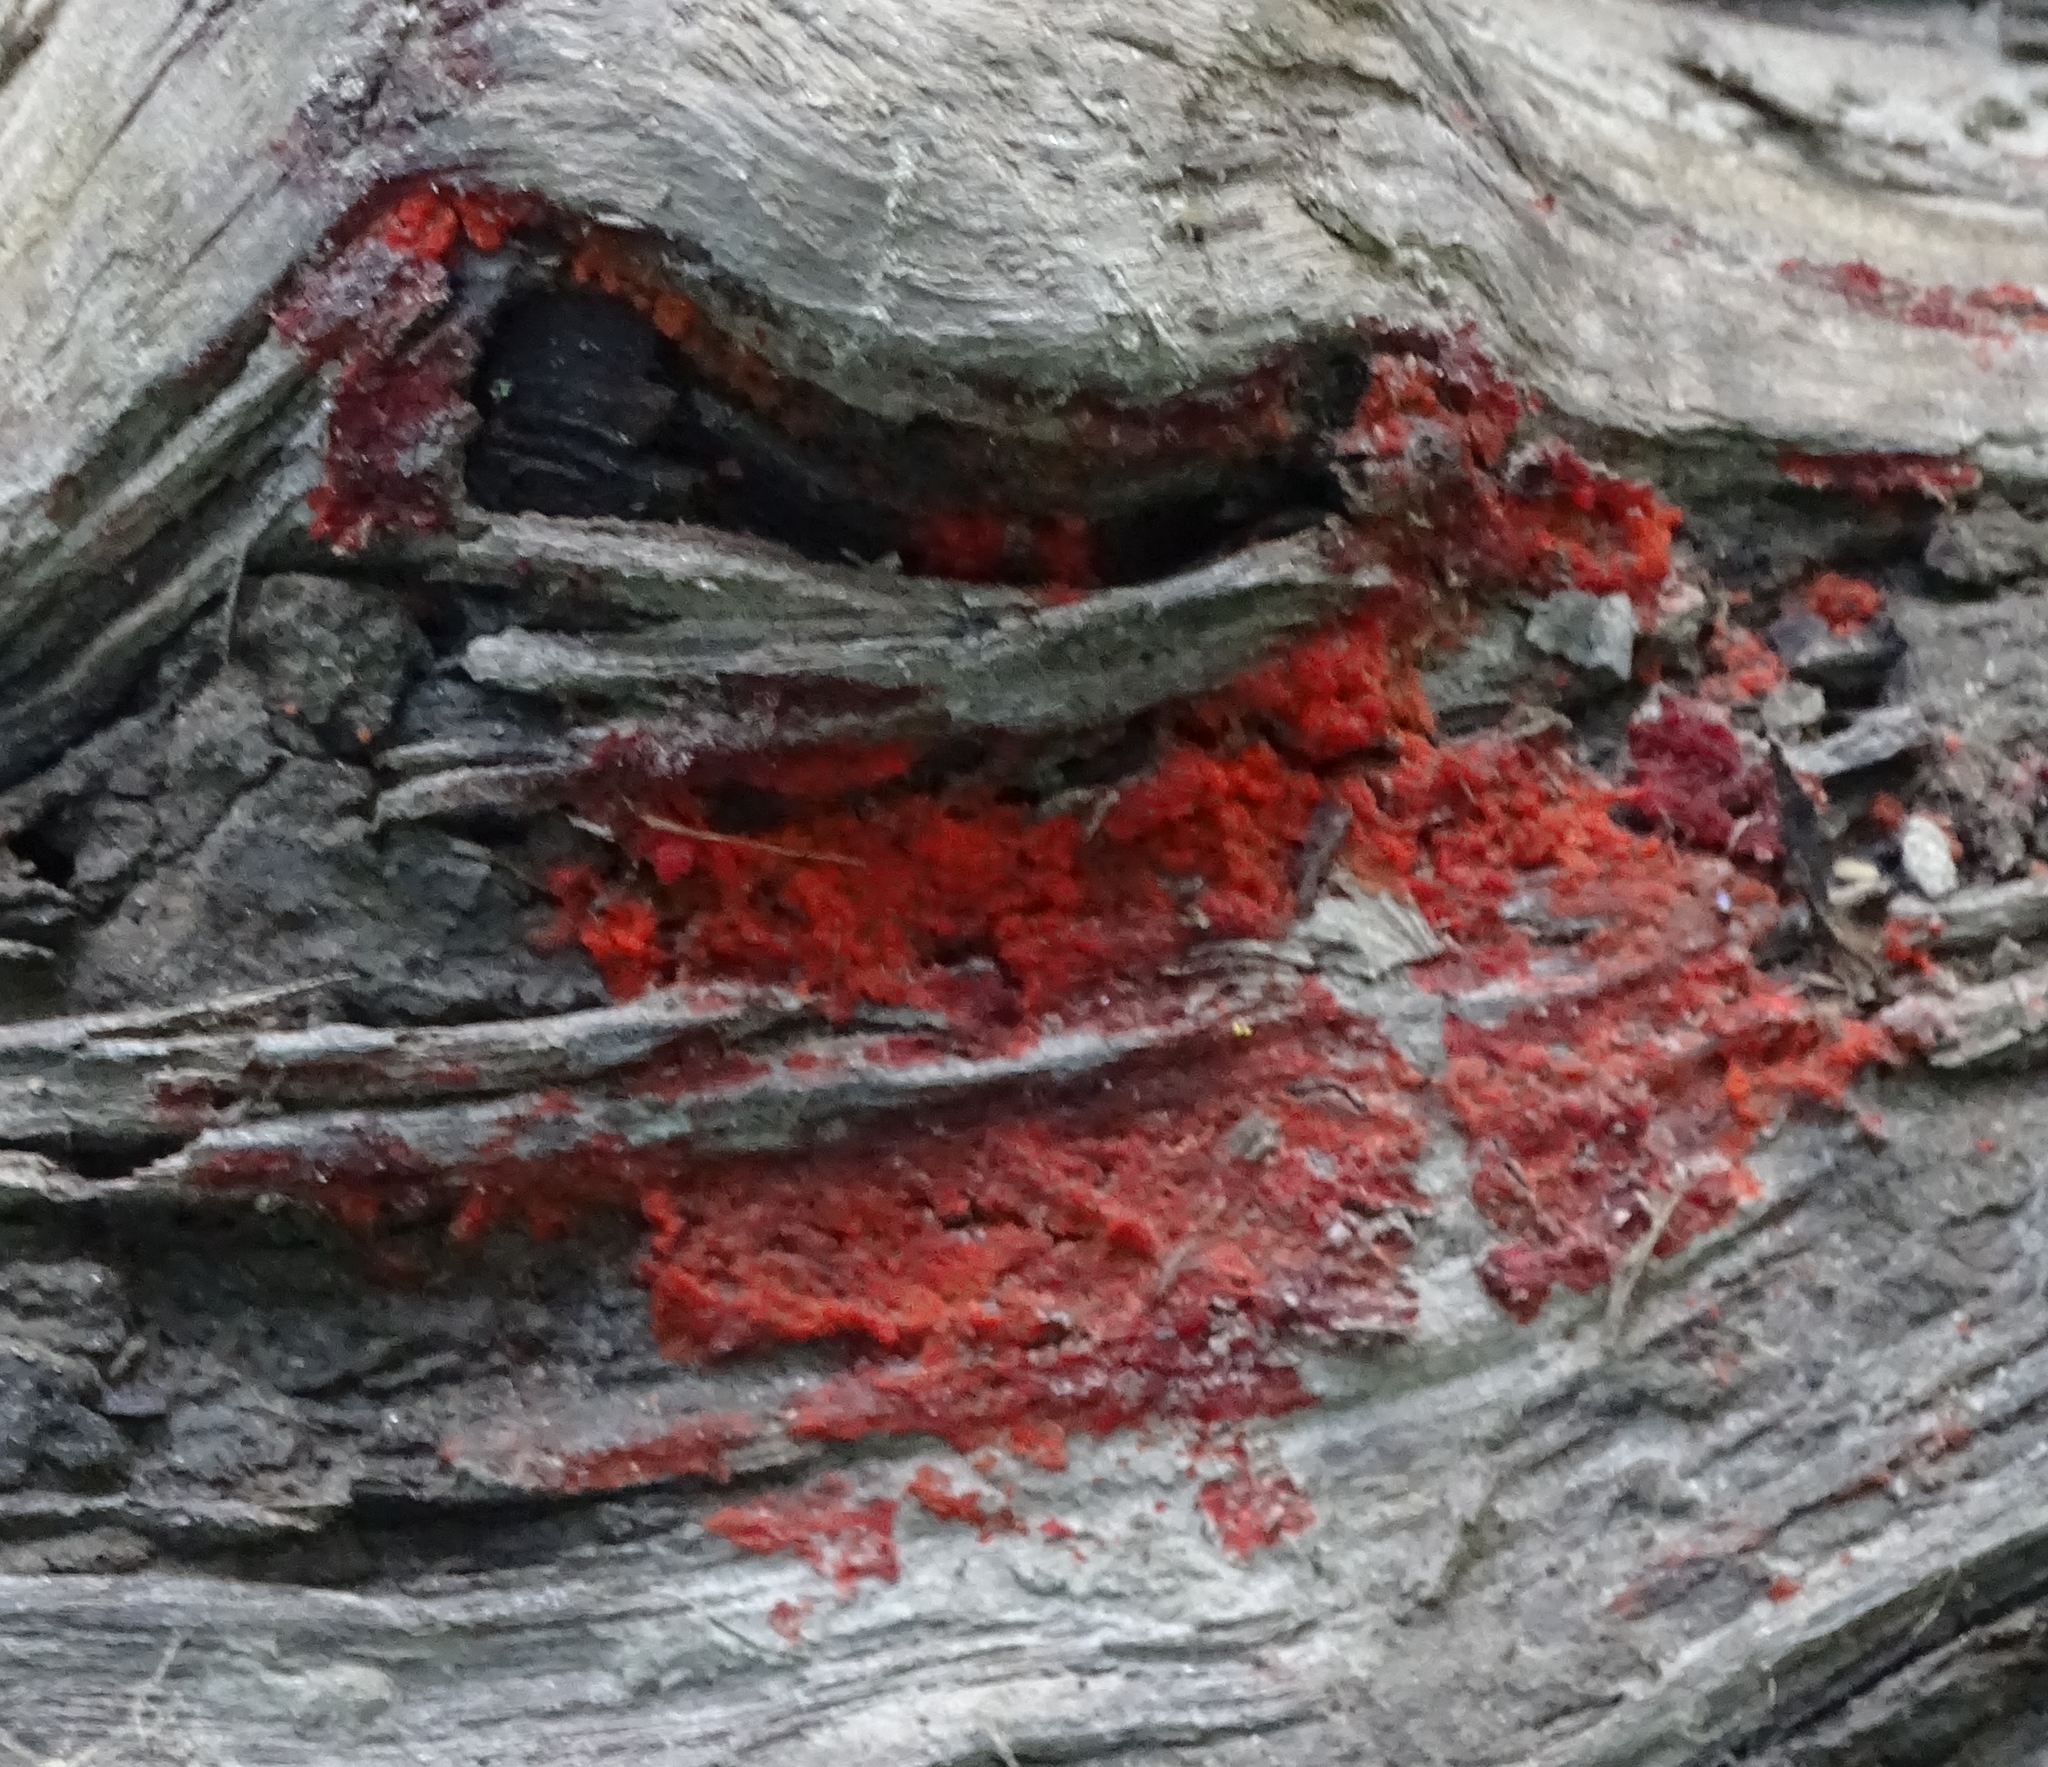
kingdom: Fungi
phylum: Basidiomycota
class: Agaricomycetes
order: Cantharellales
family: Tulasnellaceae
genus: Tulasnella
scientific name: Tulasnella aurantiaca
